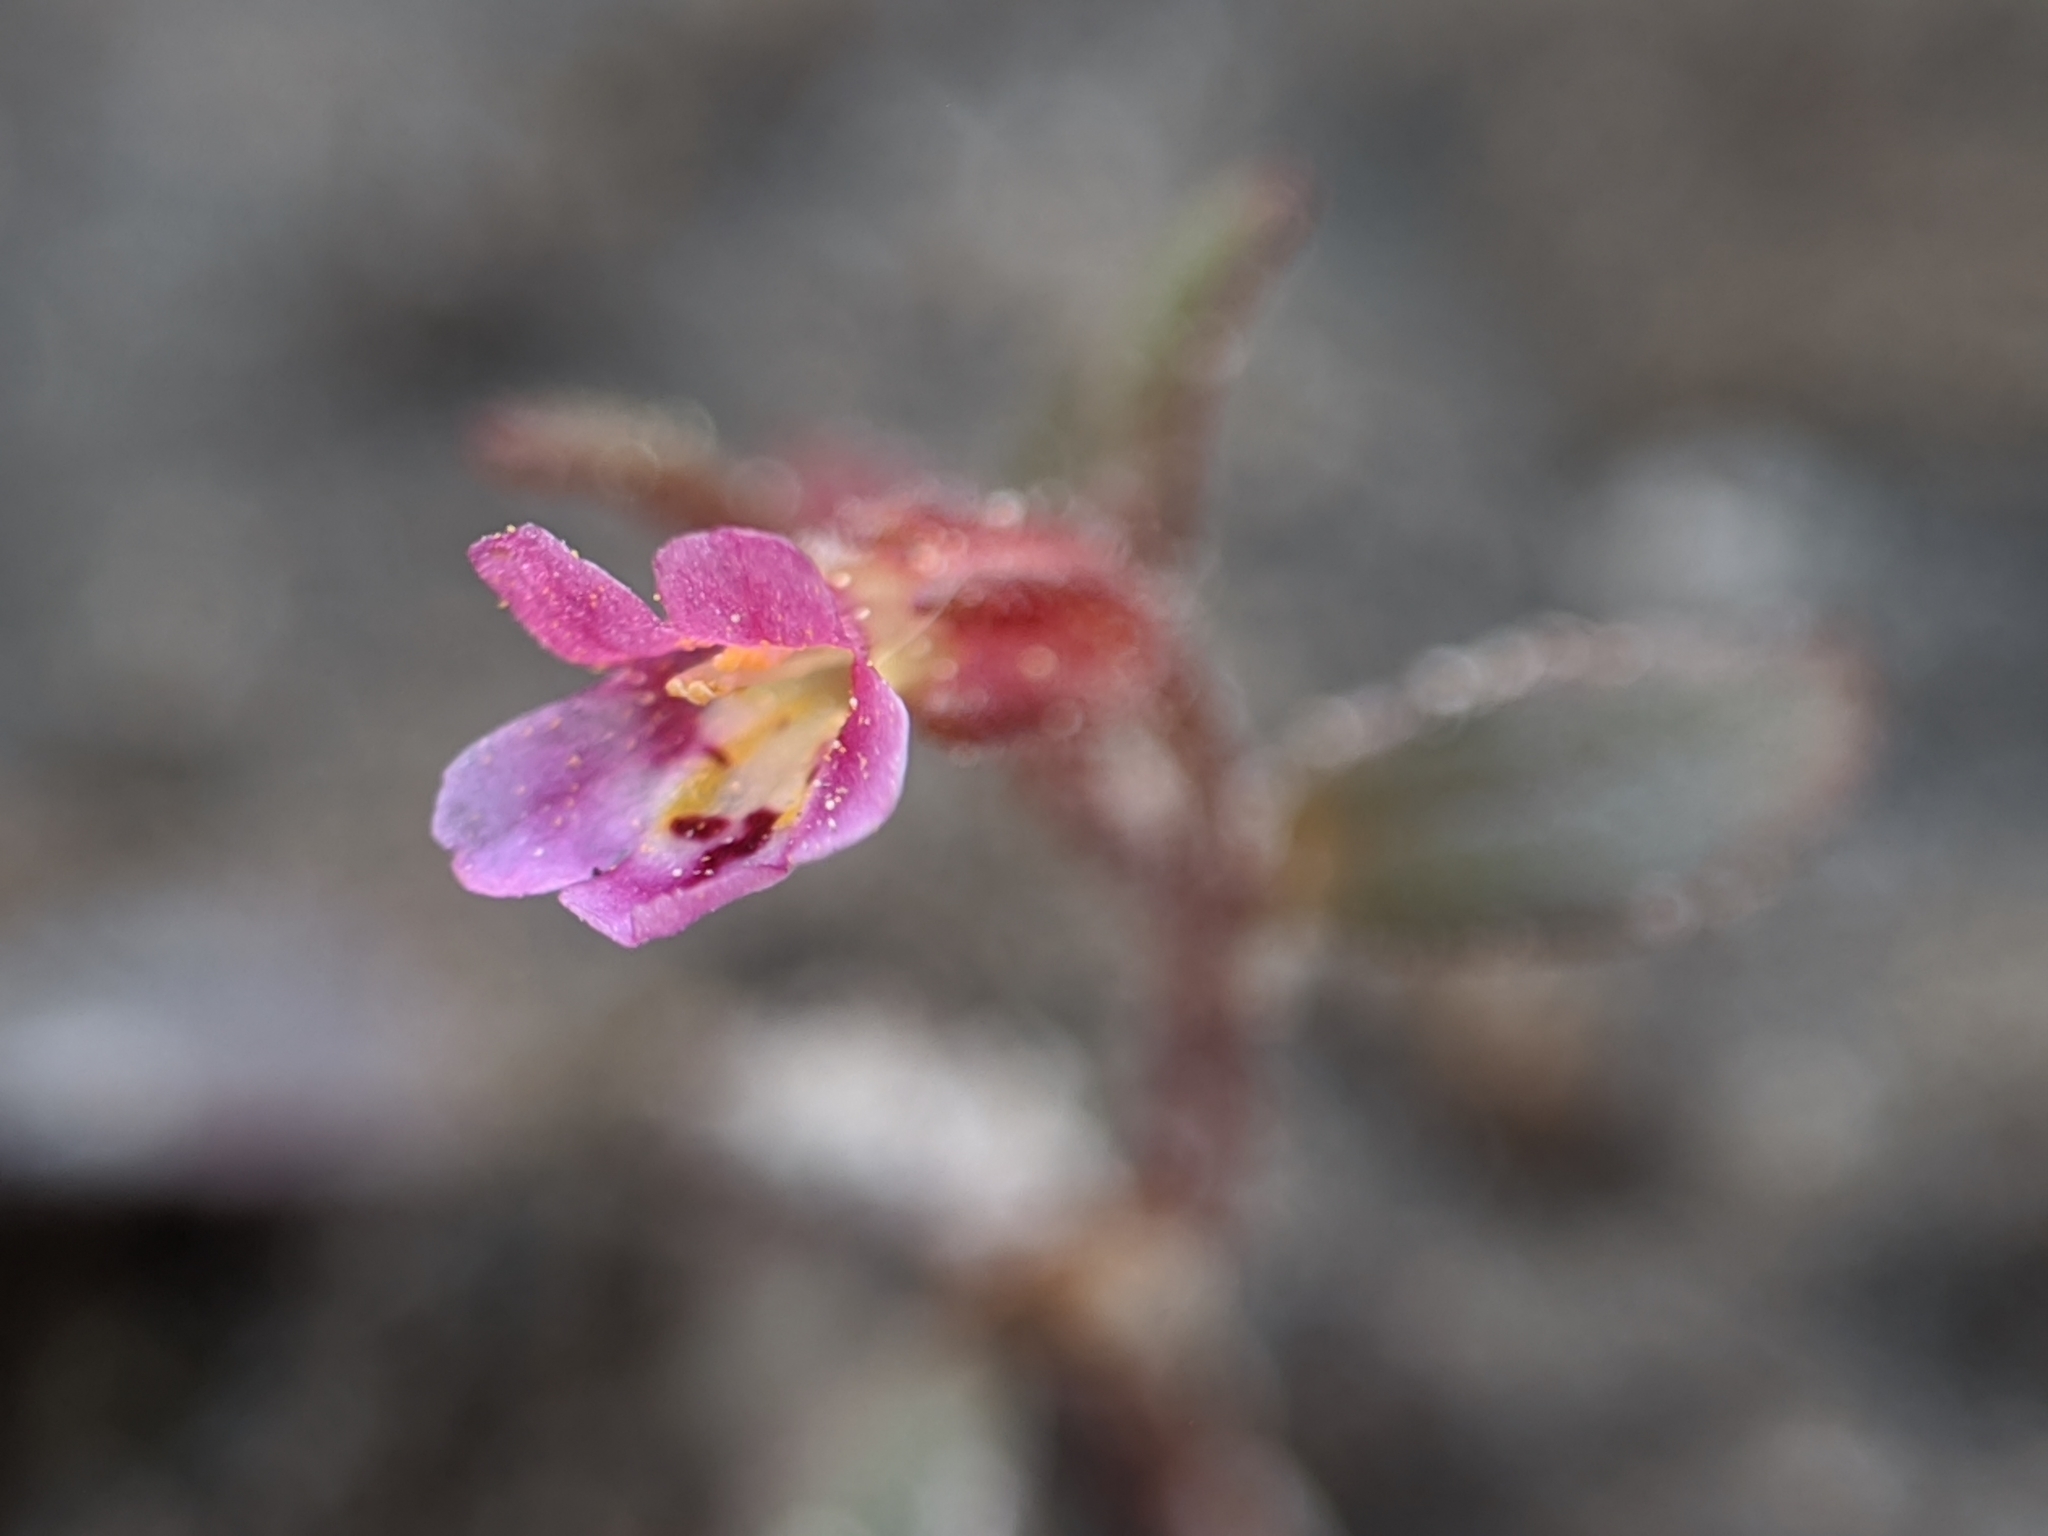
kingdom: Plantae
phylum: Tracheophyta
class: Magnoliopsida
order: Lamiales
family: Phrymaceae
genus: Erythranthe
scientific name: Erythranthe breweri
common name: Brewer's monkeyflower
